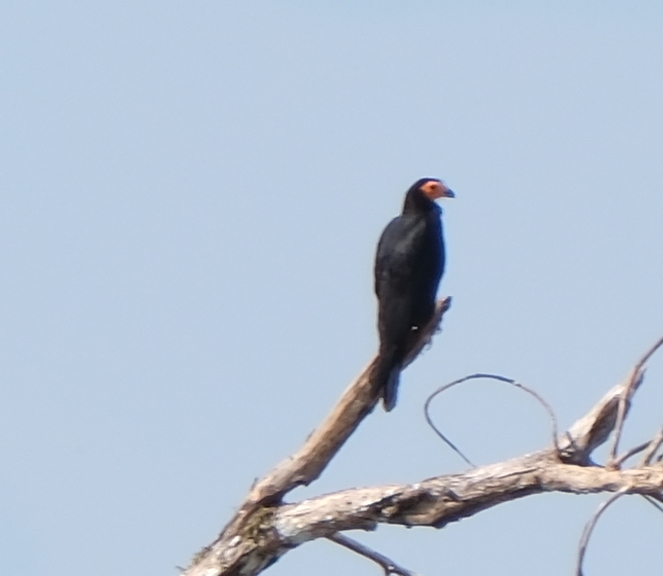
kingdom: Animalia
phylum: Chordata
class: Aves
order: Falconiformes
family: Falconidae
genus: Daptrius
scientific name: Daptrius ater
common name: Black caracara
